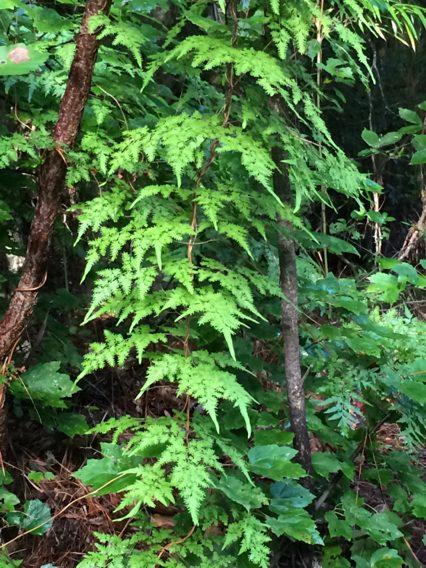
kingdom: Plantae
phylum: Tracheophyta
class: Polypodiopsida
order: Schizaeales
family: Lygodiaceae
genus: Lygodium
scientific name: Lygodium japonicum
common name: Japanese climbing fern
